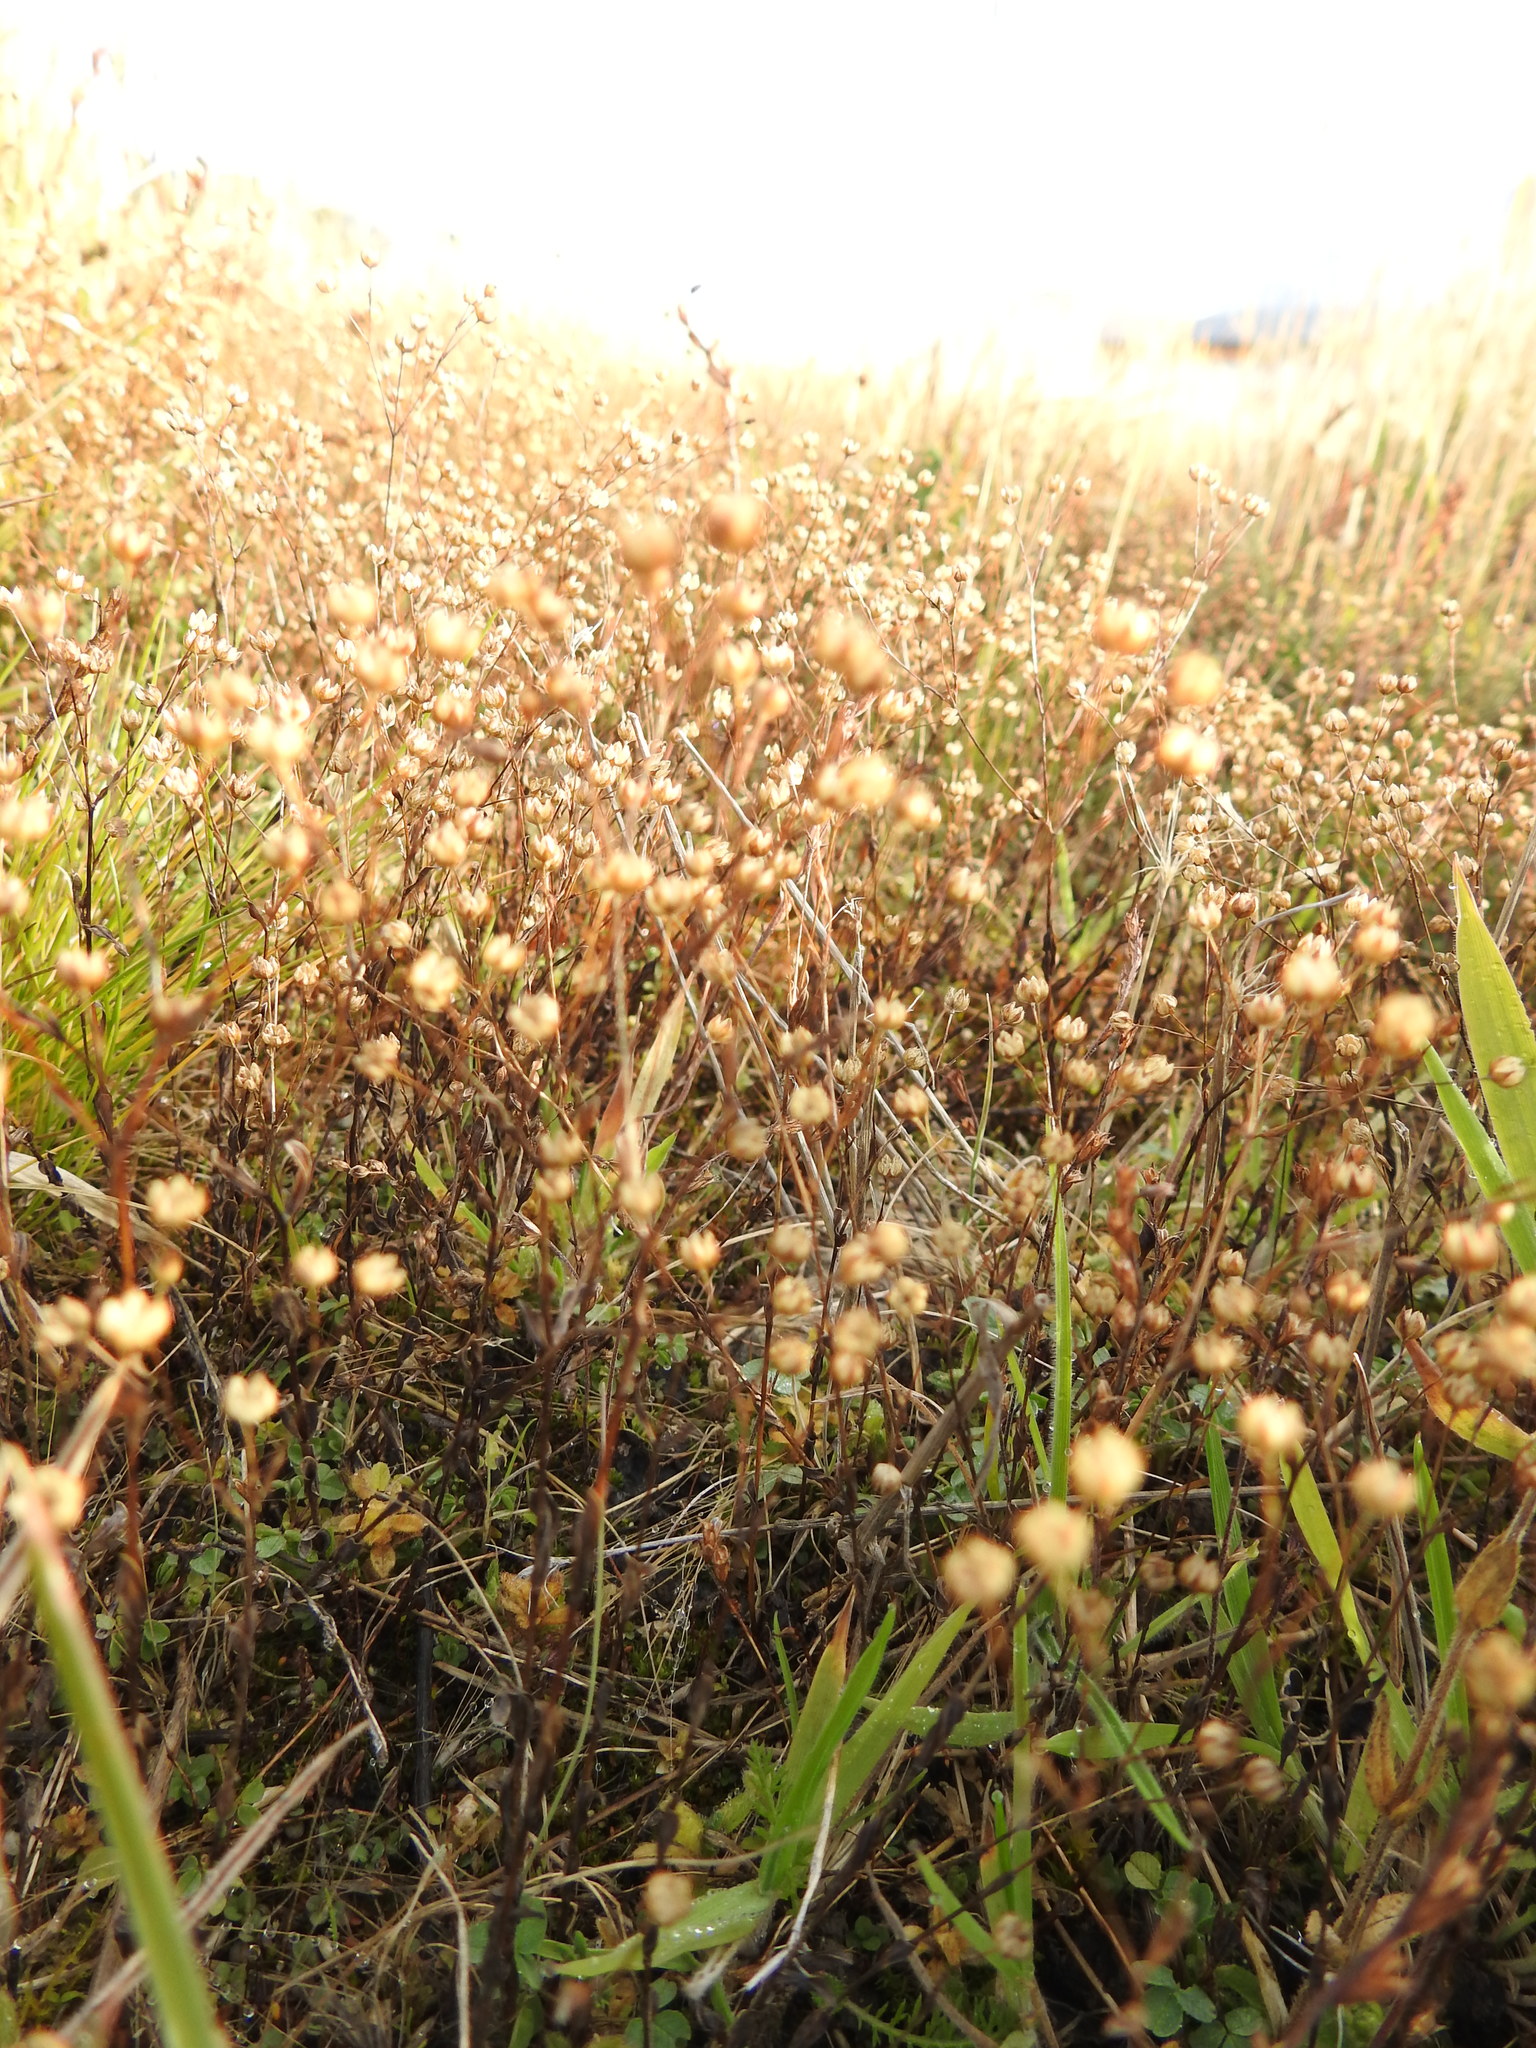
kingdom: Plantae
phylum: Tracheophyta
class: Magnoliopsida
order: Malpighiales
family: Linaceae
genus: Linum
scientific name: Linum catharticum
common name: Fairy flax
